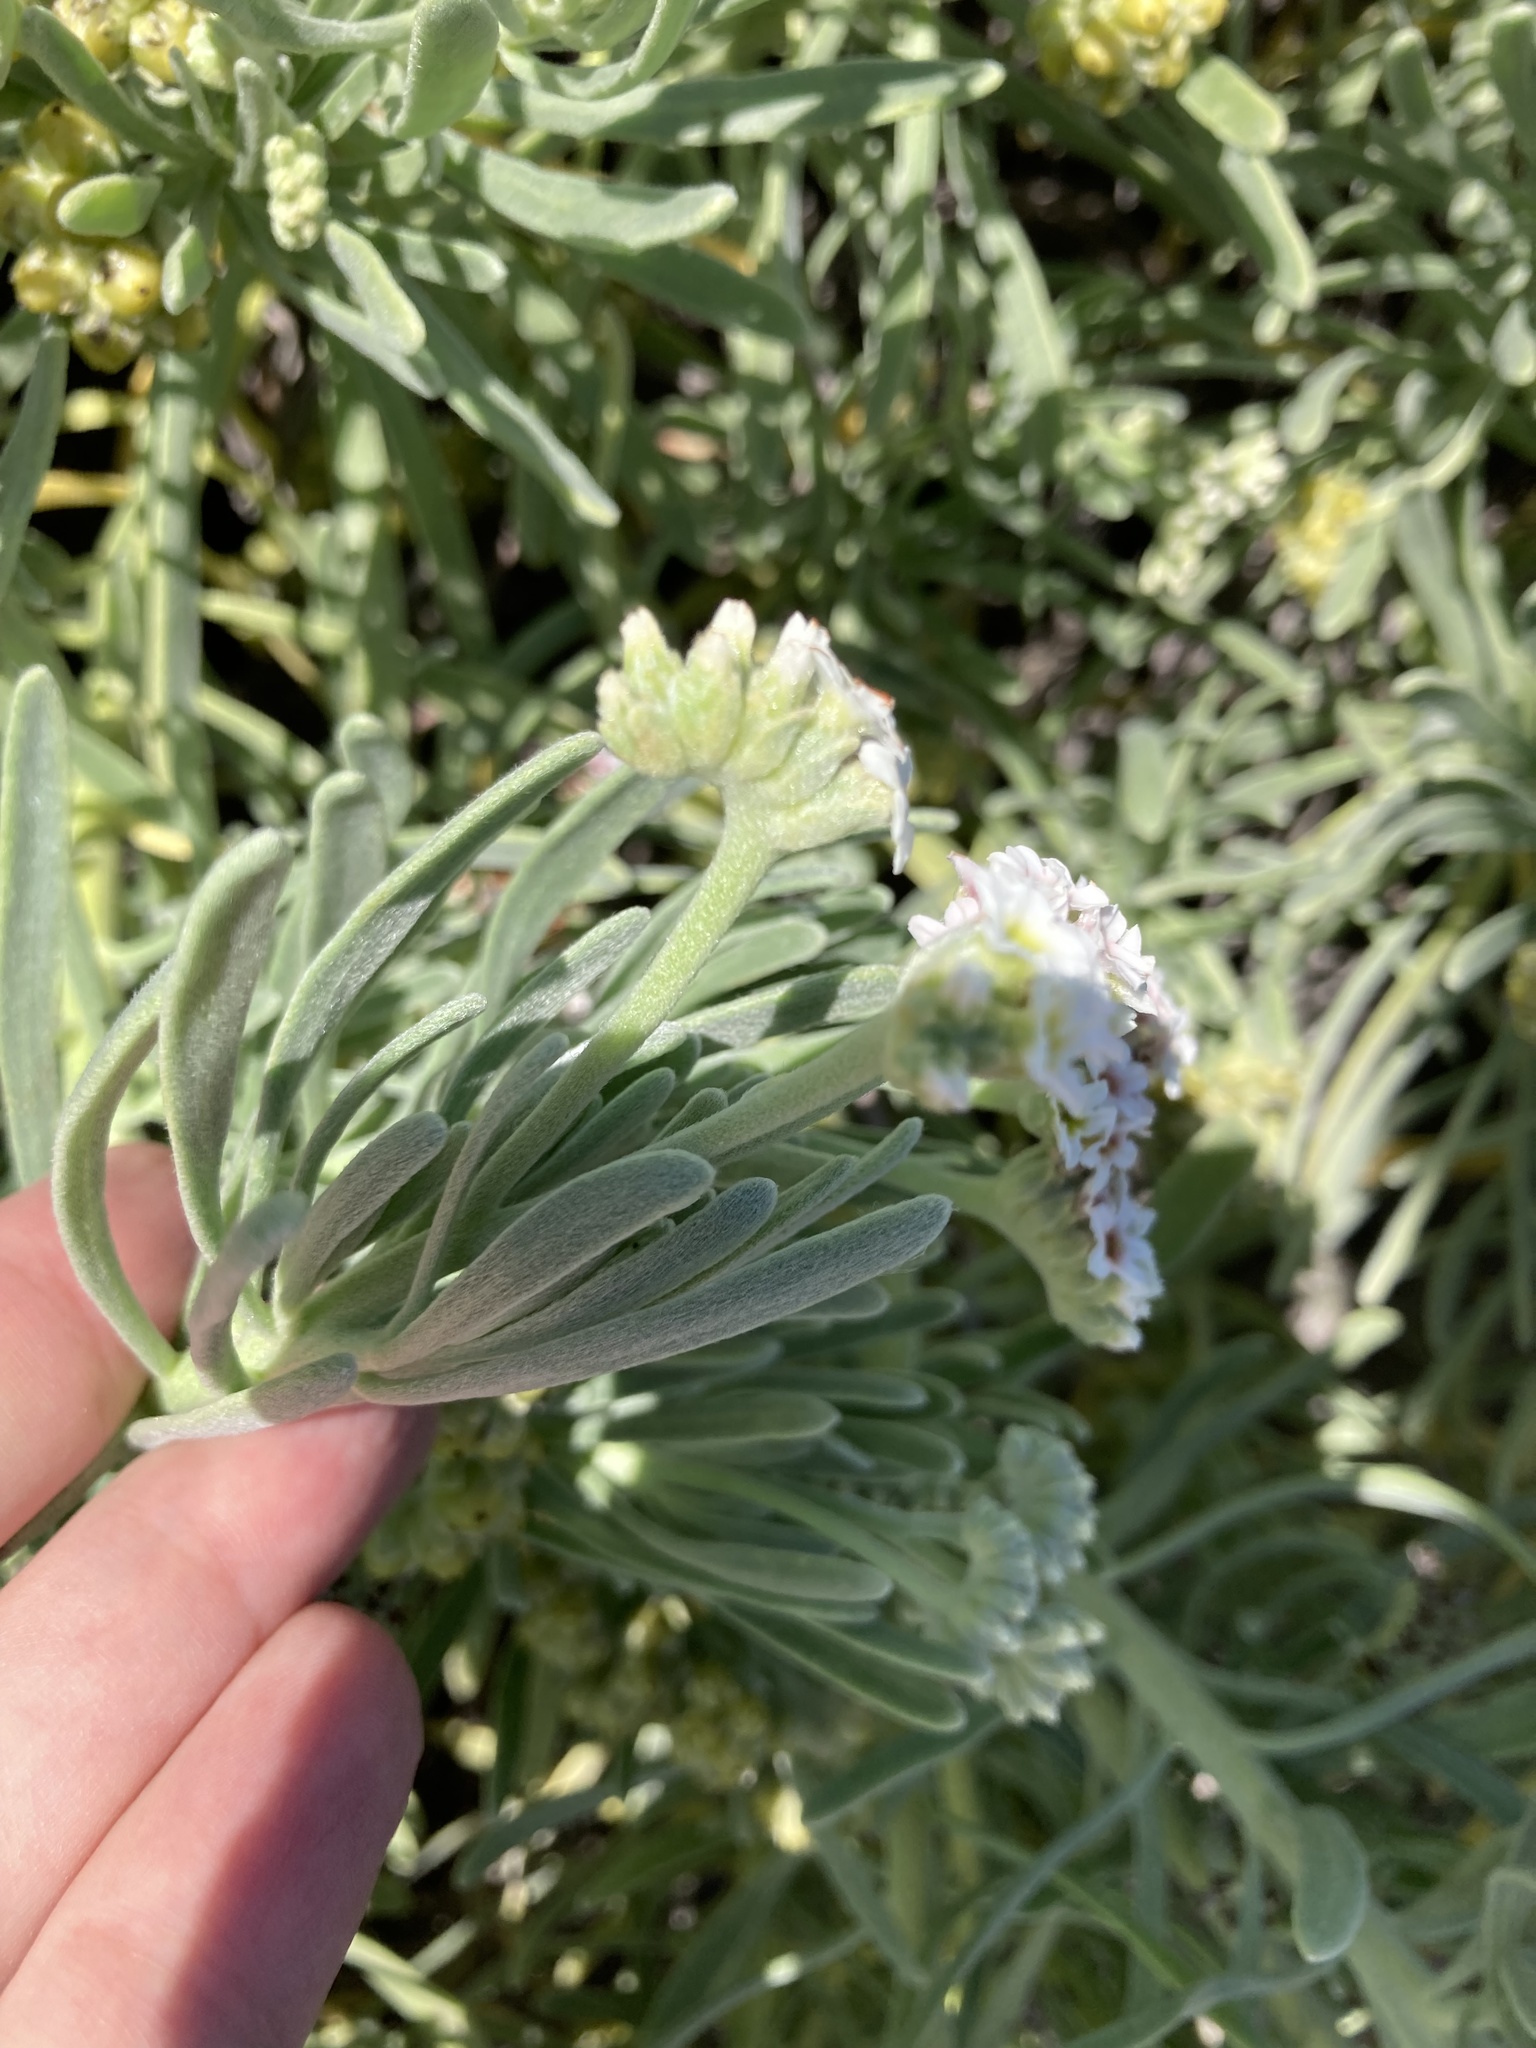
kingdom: Plantae
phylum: Tracheophyta
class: Magnoliopsida
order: Boraginales
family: Heliotropiaceae
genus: Tournefortia
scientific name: Tournefortia gnaphalodes
